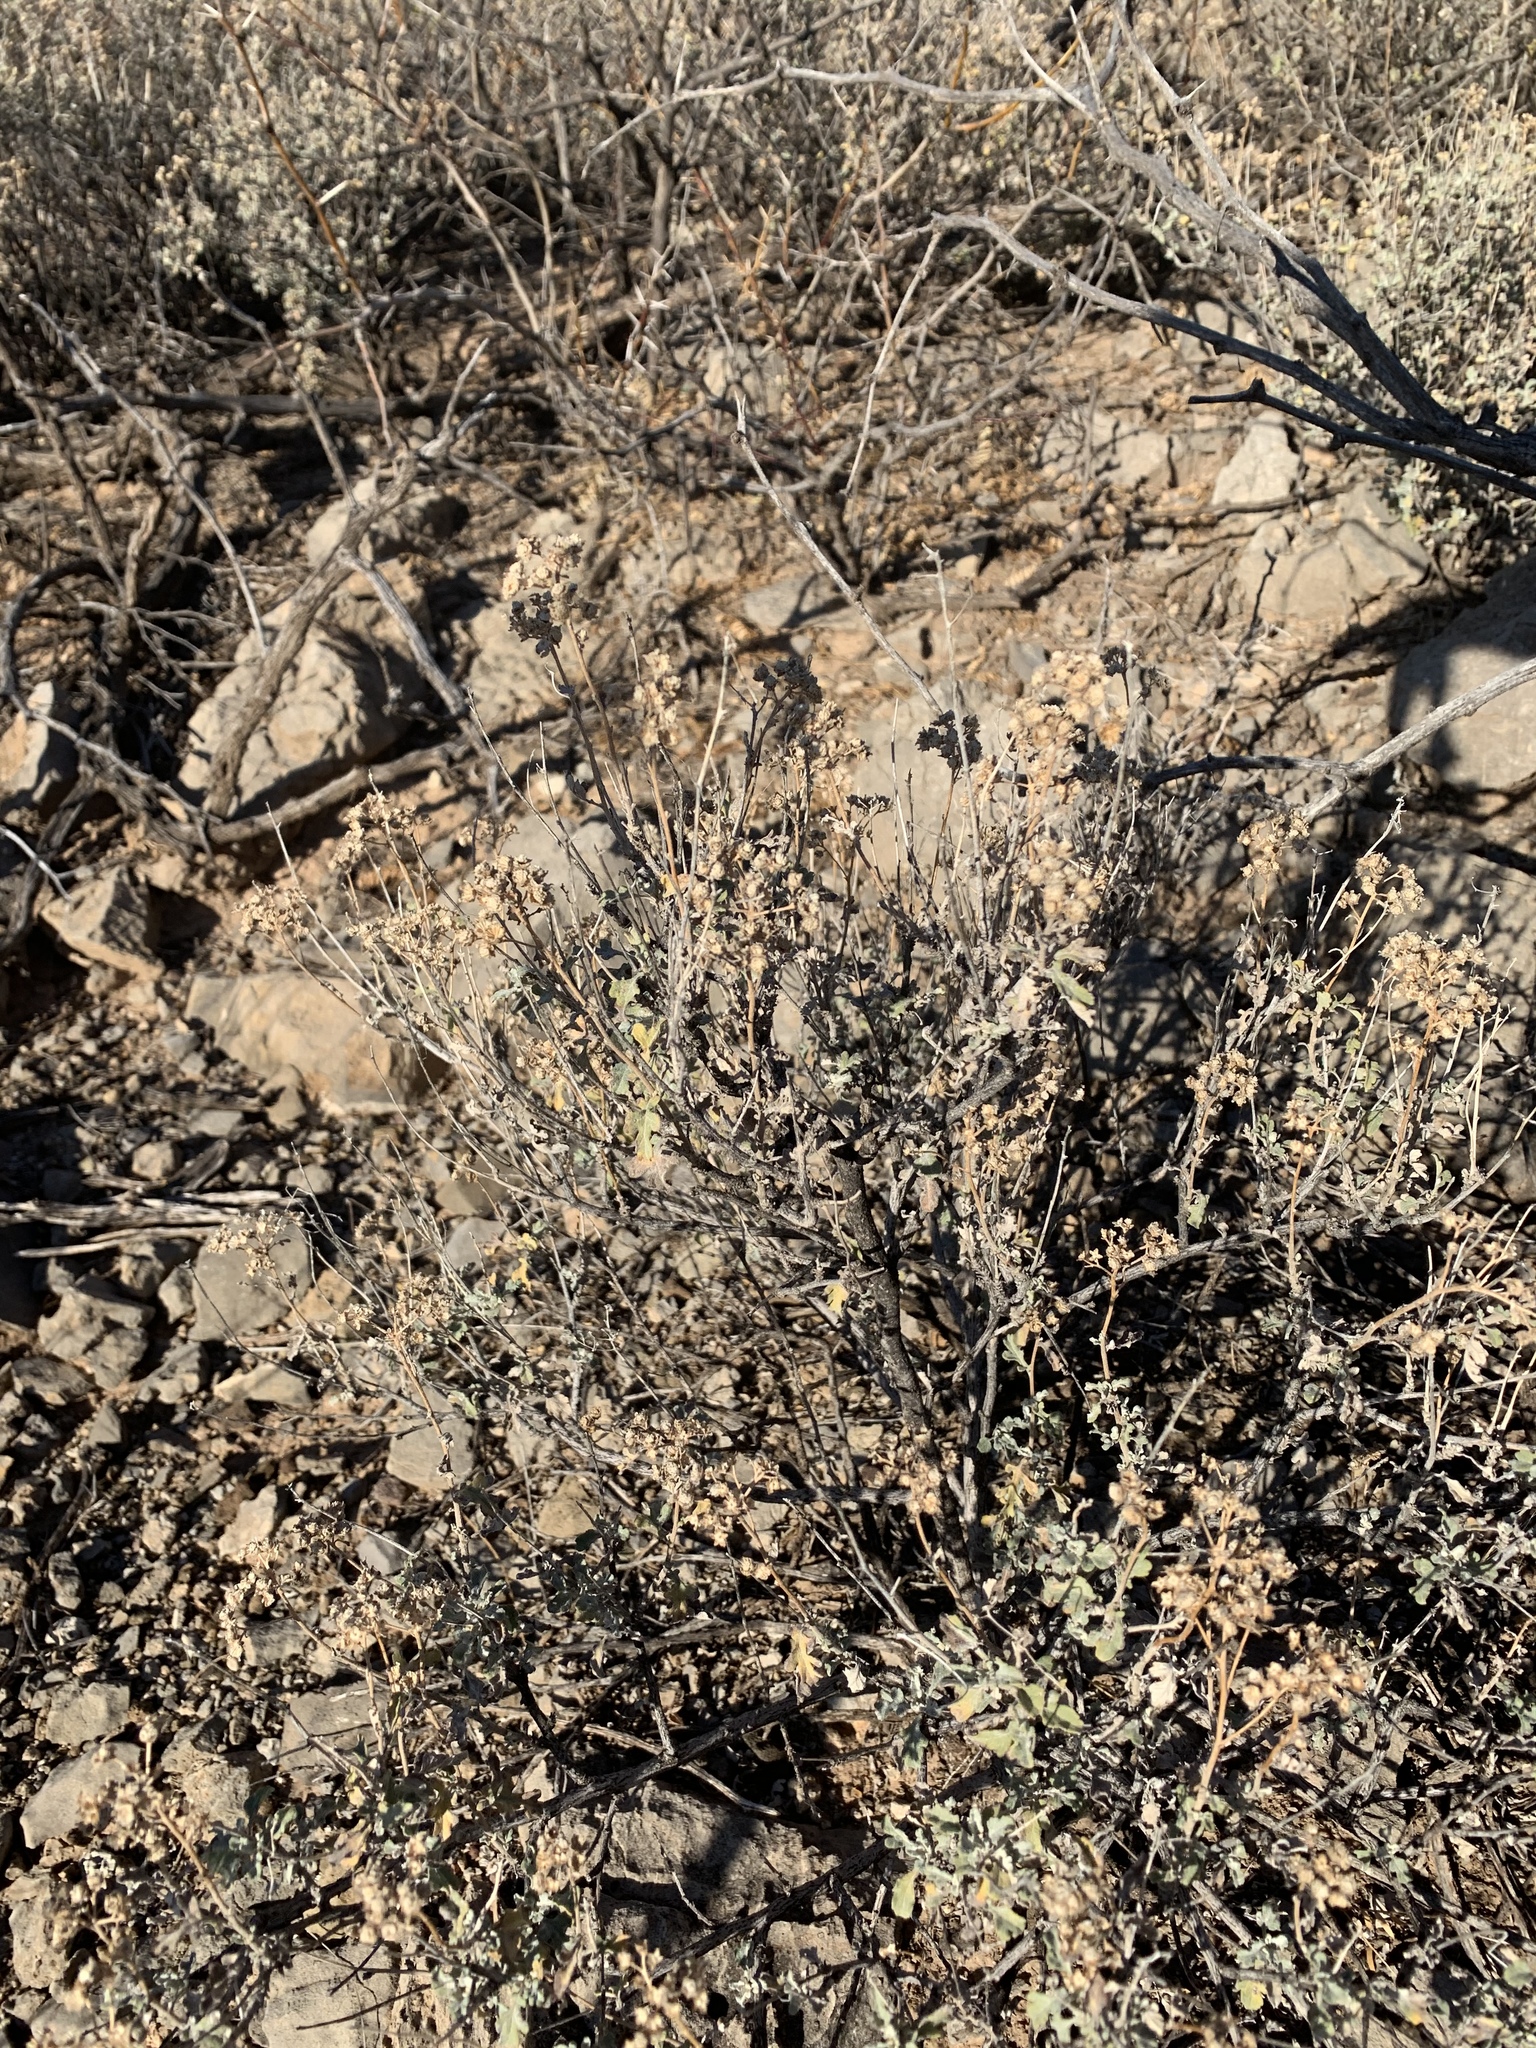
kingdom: Plantae
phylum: Tracheophyta
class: Magnoliopsida
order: Asterales
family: Asteraceae
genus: Parthenium
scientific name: Parthenium incanum
